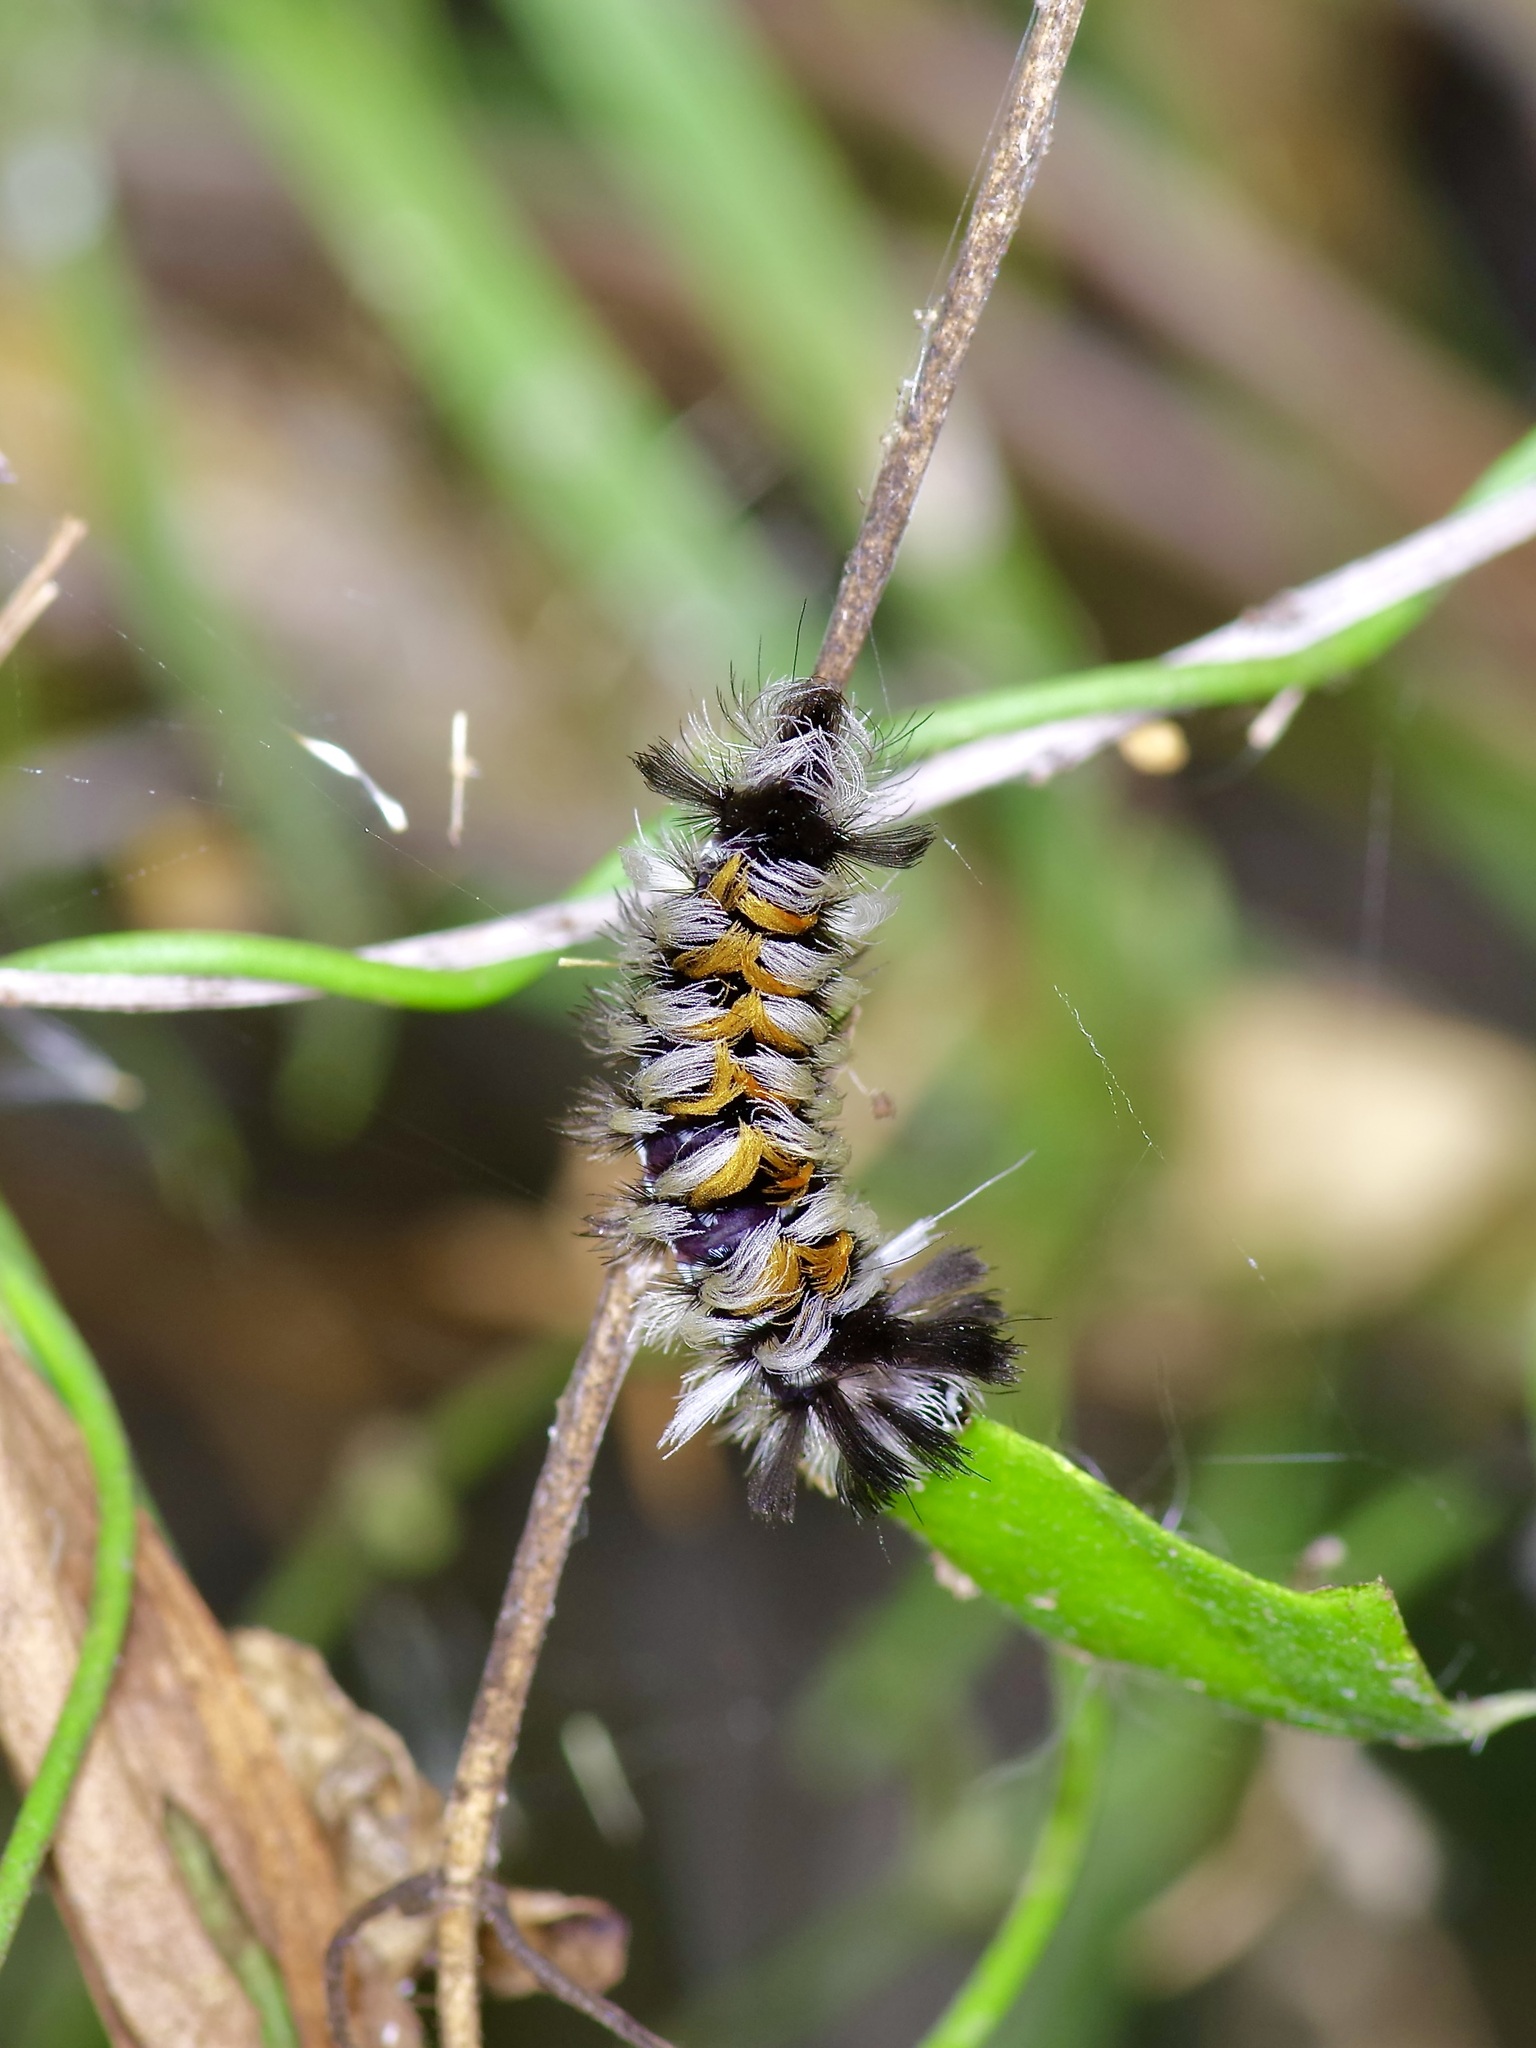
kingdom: Animalia
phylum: Arthropoda
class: Insecta
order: Lepidoptera
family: Erebidae
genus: Euchaetes
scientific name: Euchaetes bolteri
